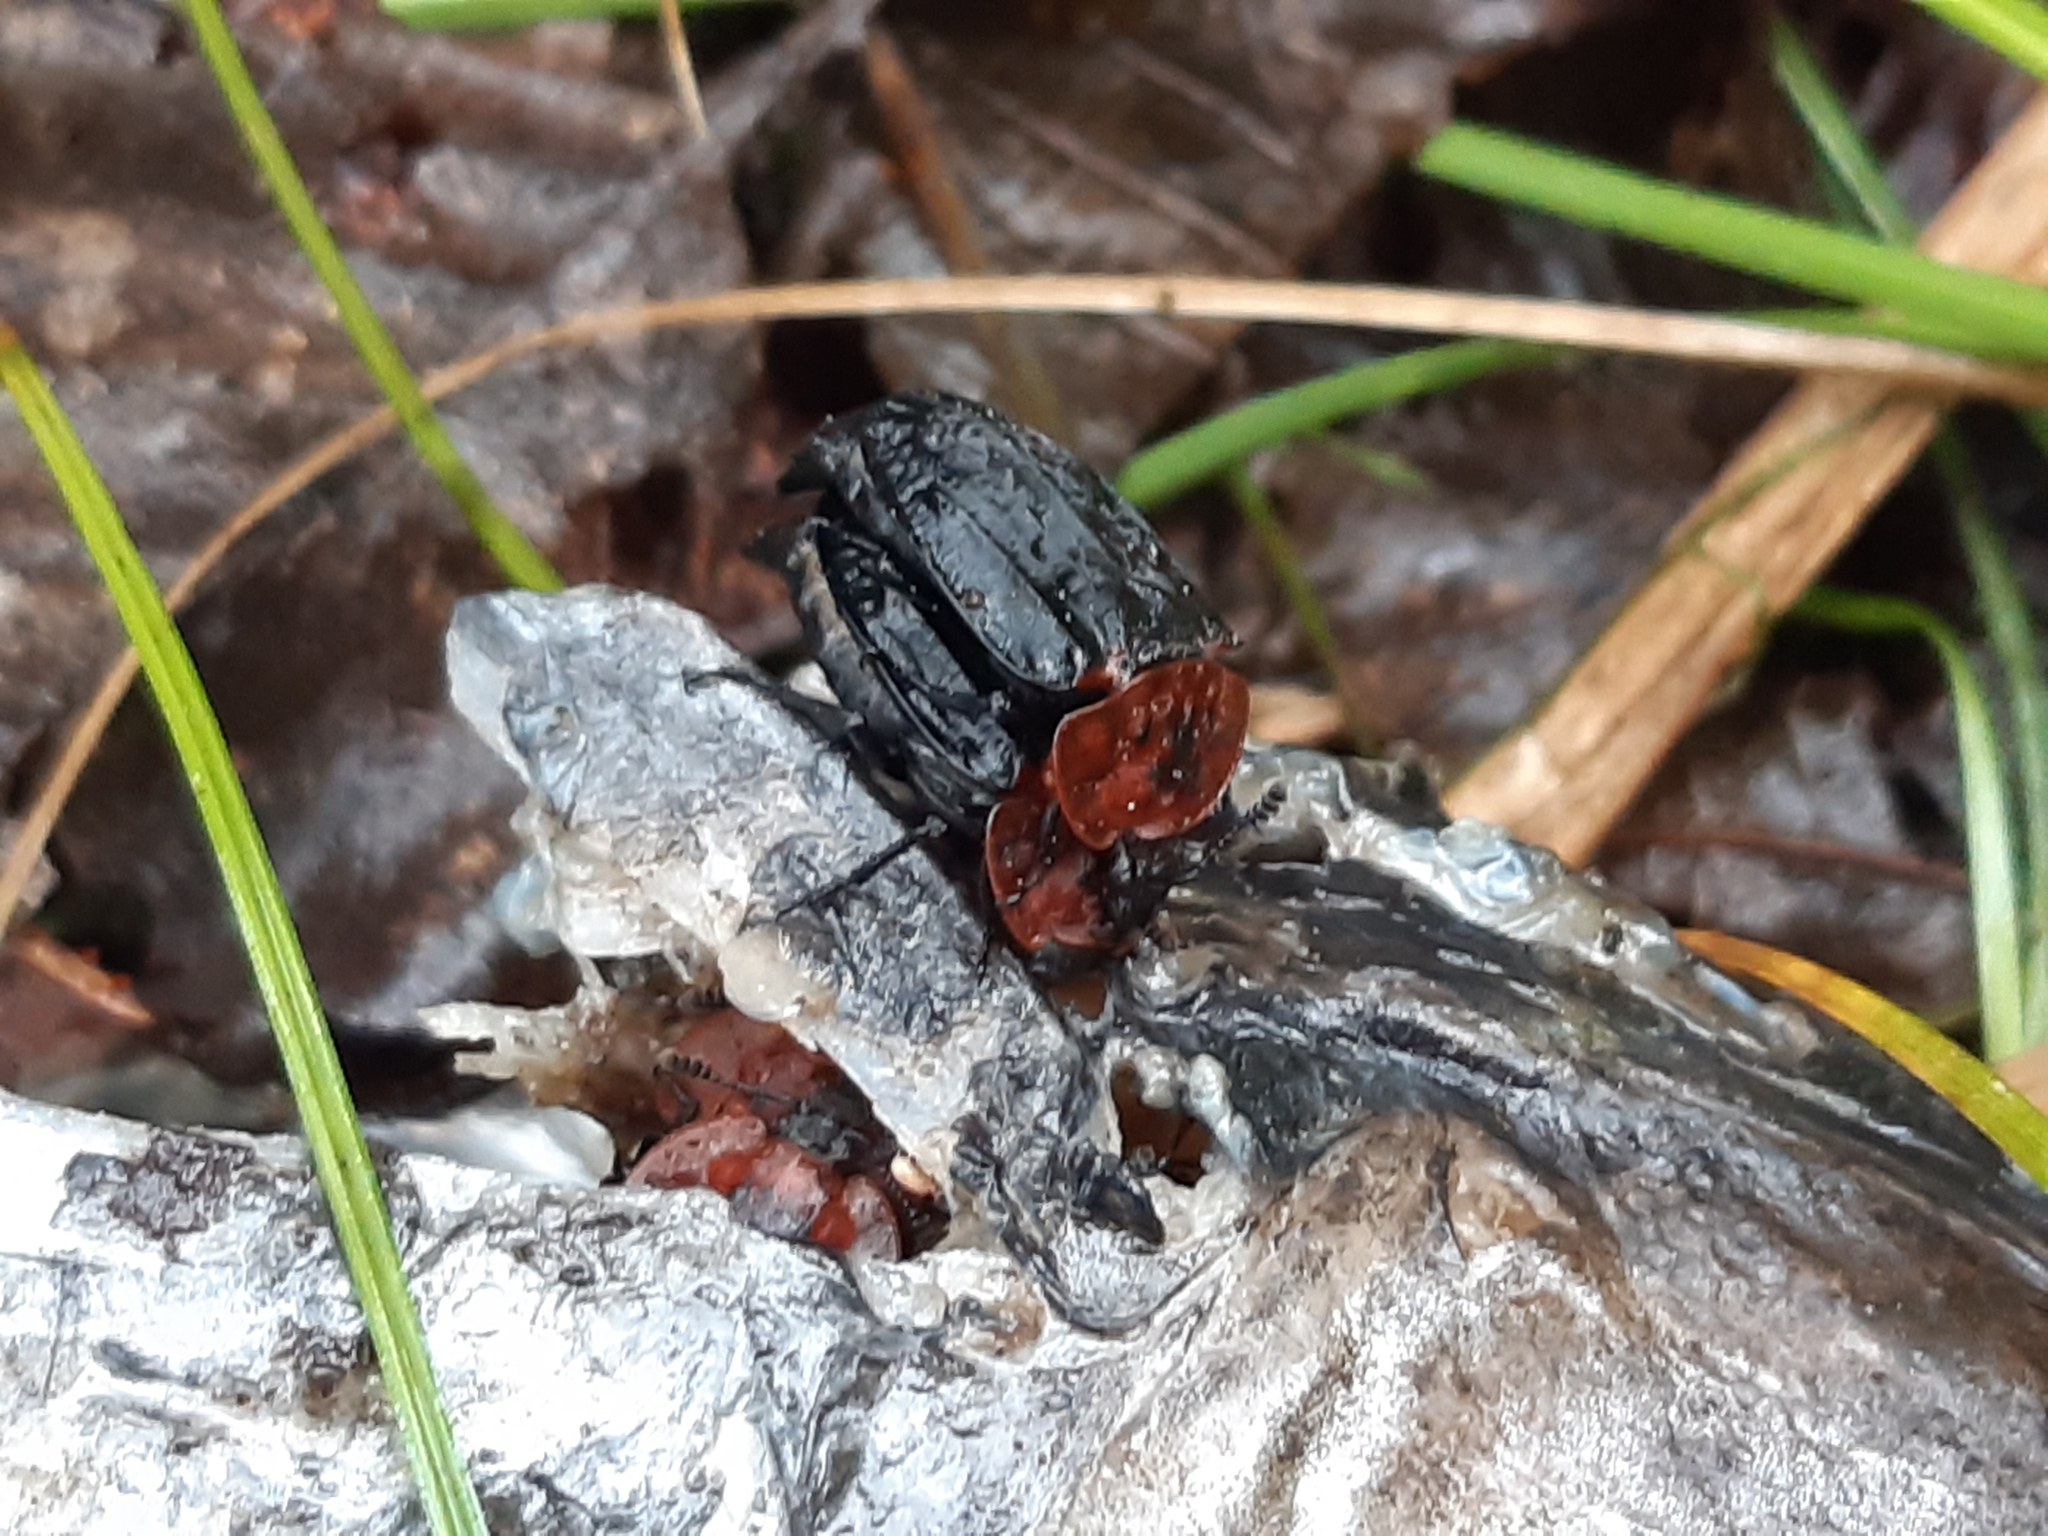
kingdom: Animalia
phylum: Arthropoda
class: Insecta
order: Coleoptera
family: Staphylinidae
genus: Oiceoptoma
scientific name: Oiceoptoma thoracicum
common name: Red-breasted carrion beetle
